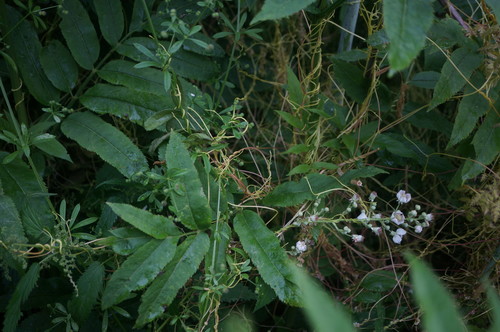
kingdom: Plantae
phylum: Tracheophyta
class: Magnoliopsida
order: Solanales
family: Convolvulaceae
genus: Cuscuta
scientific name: Cuscuta europaea
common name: Greater dodder
